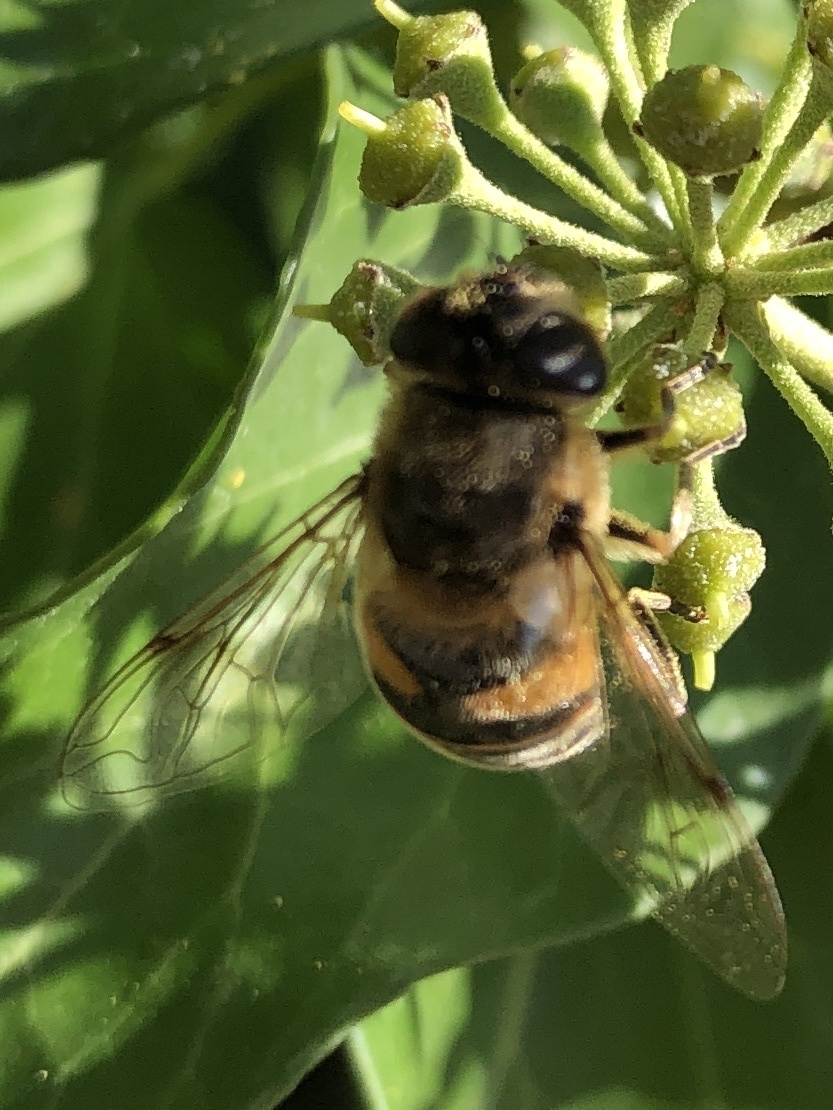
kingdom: Animalia
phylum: Arthropoda
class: Insecta
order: Diptera
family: Syrphidae
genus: Eristalis
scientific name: Eristalis tenax
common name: Drone fly
